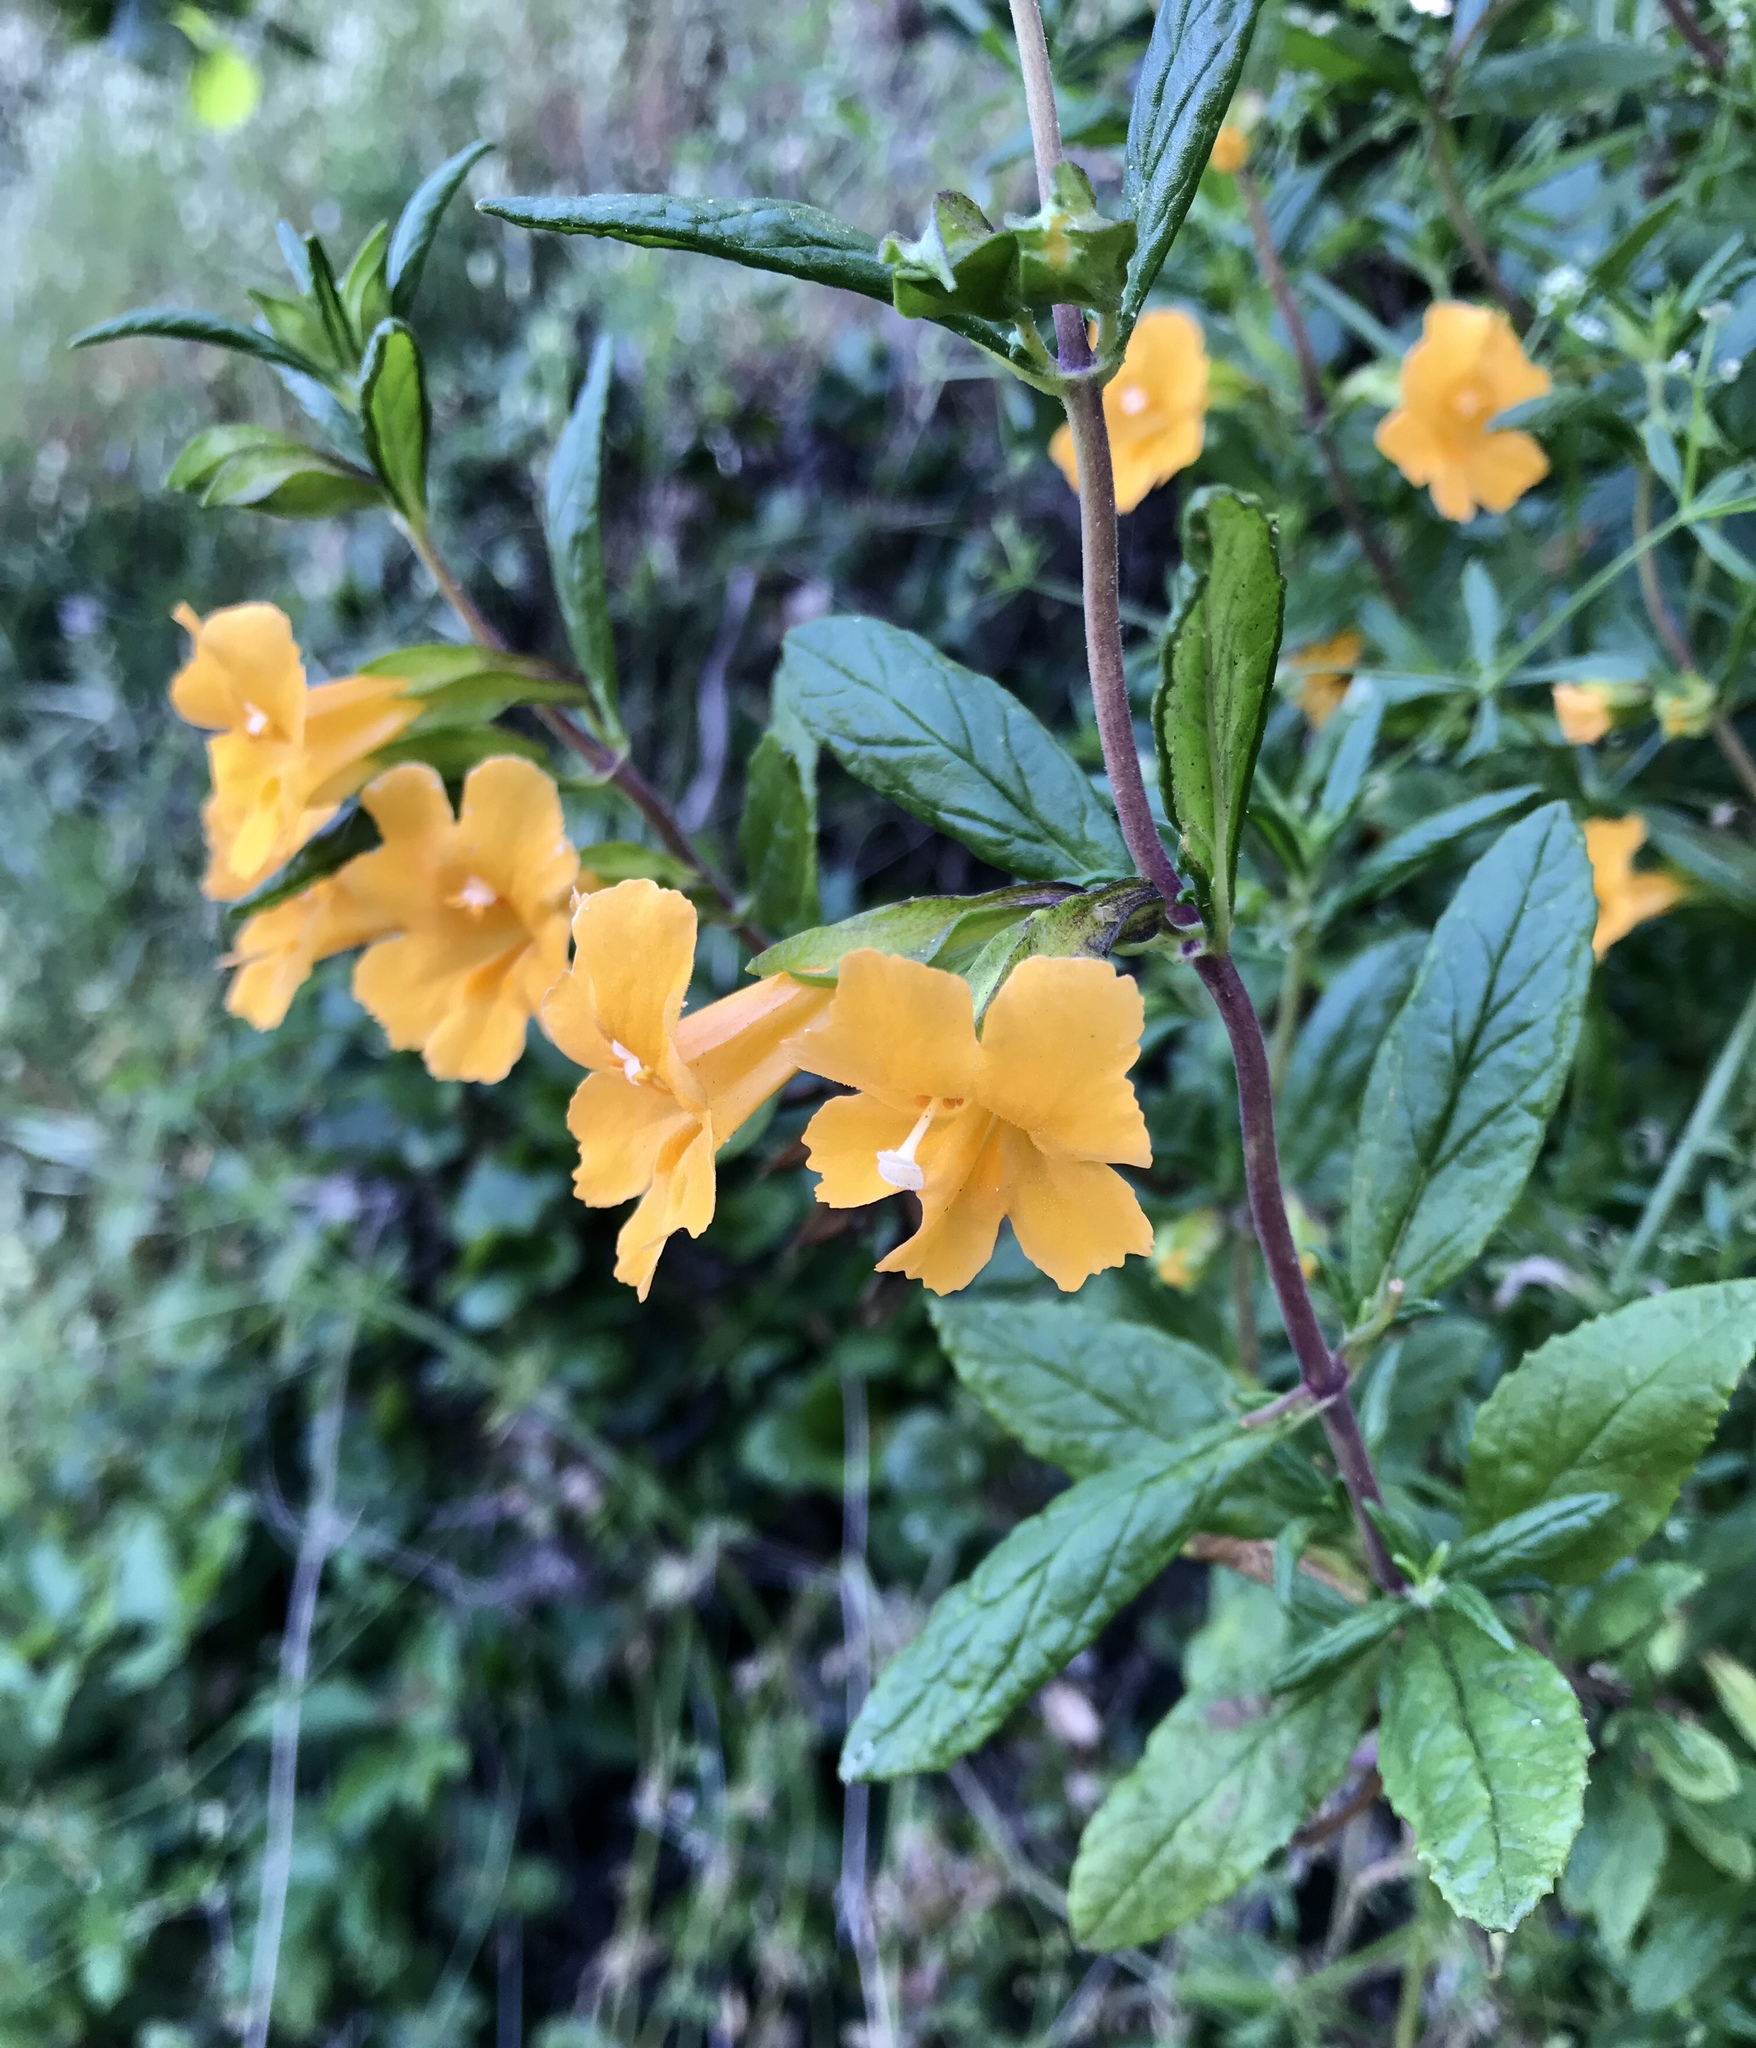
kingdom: Plantae
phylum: Tracheophyta
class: Magnoliopsida
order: Lamiales
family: Phrymaceae
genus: Diplacus
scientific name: Diplacus aurantiacus
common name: Bush monkey-flower
